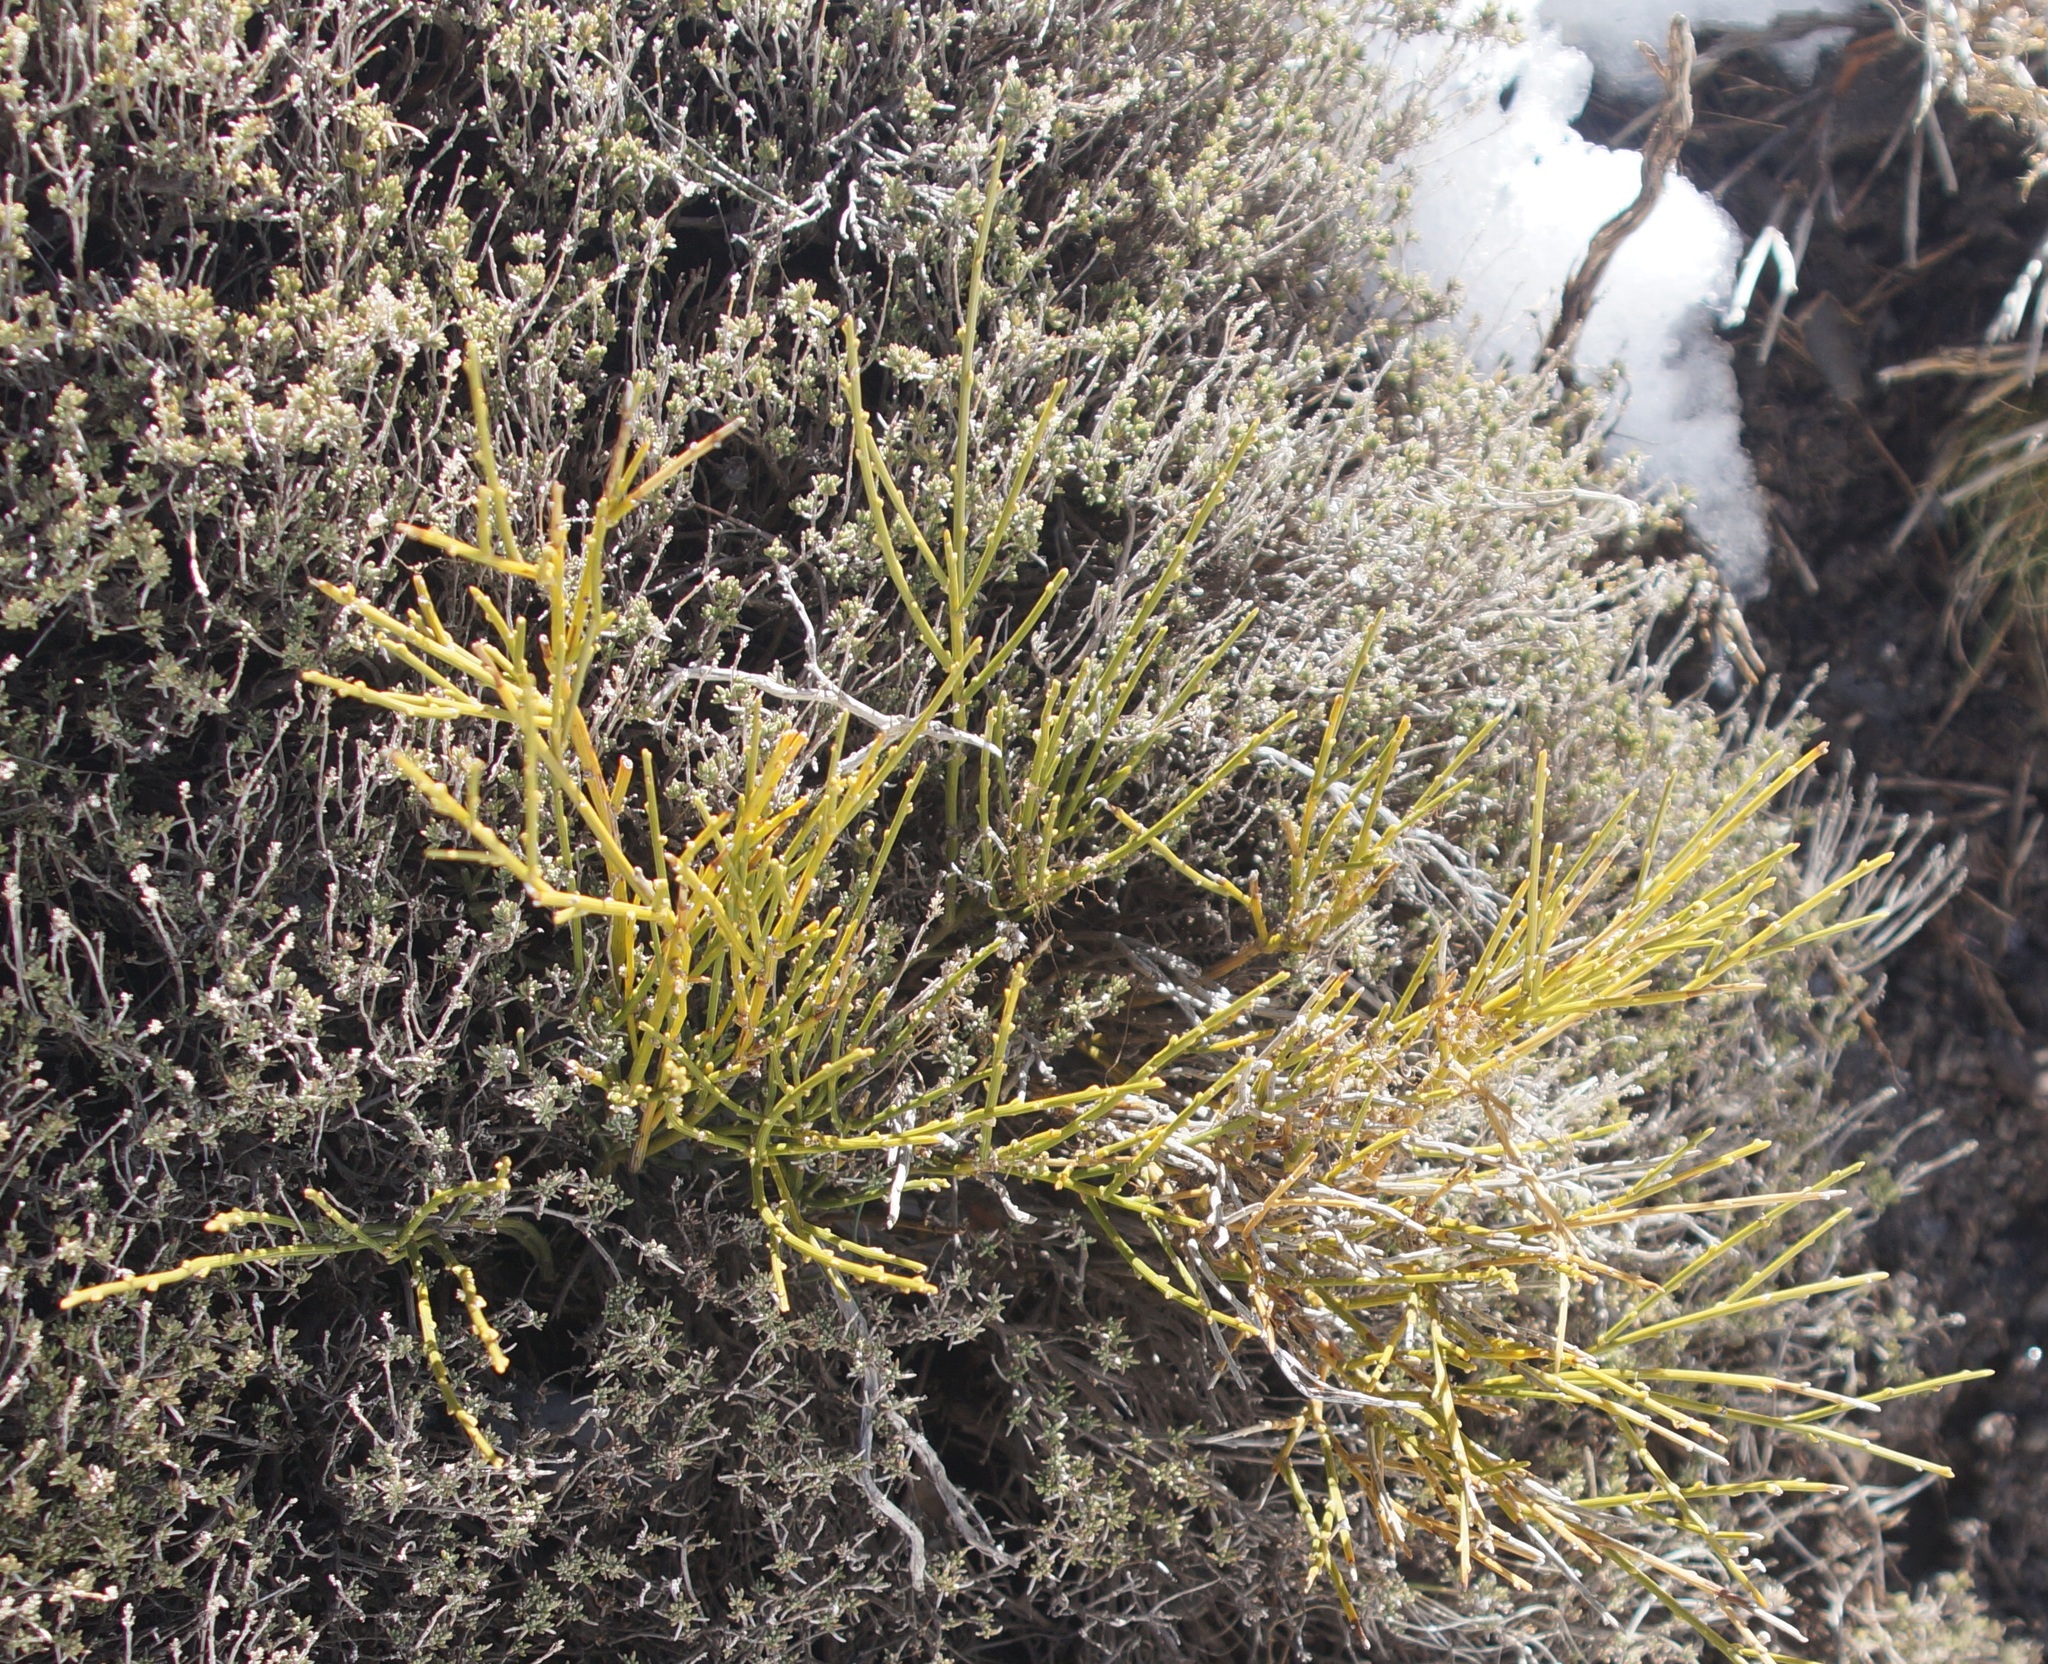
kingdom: Plantae
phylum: Tracheophyta
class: Magnoliopsida
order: Fabales
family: Fabaceae
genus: Cytisus
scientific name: Cytisus balansae
